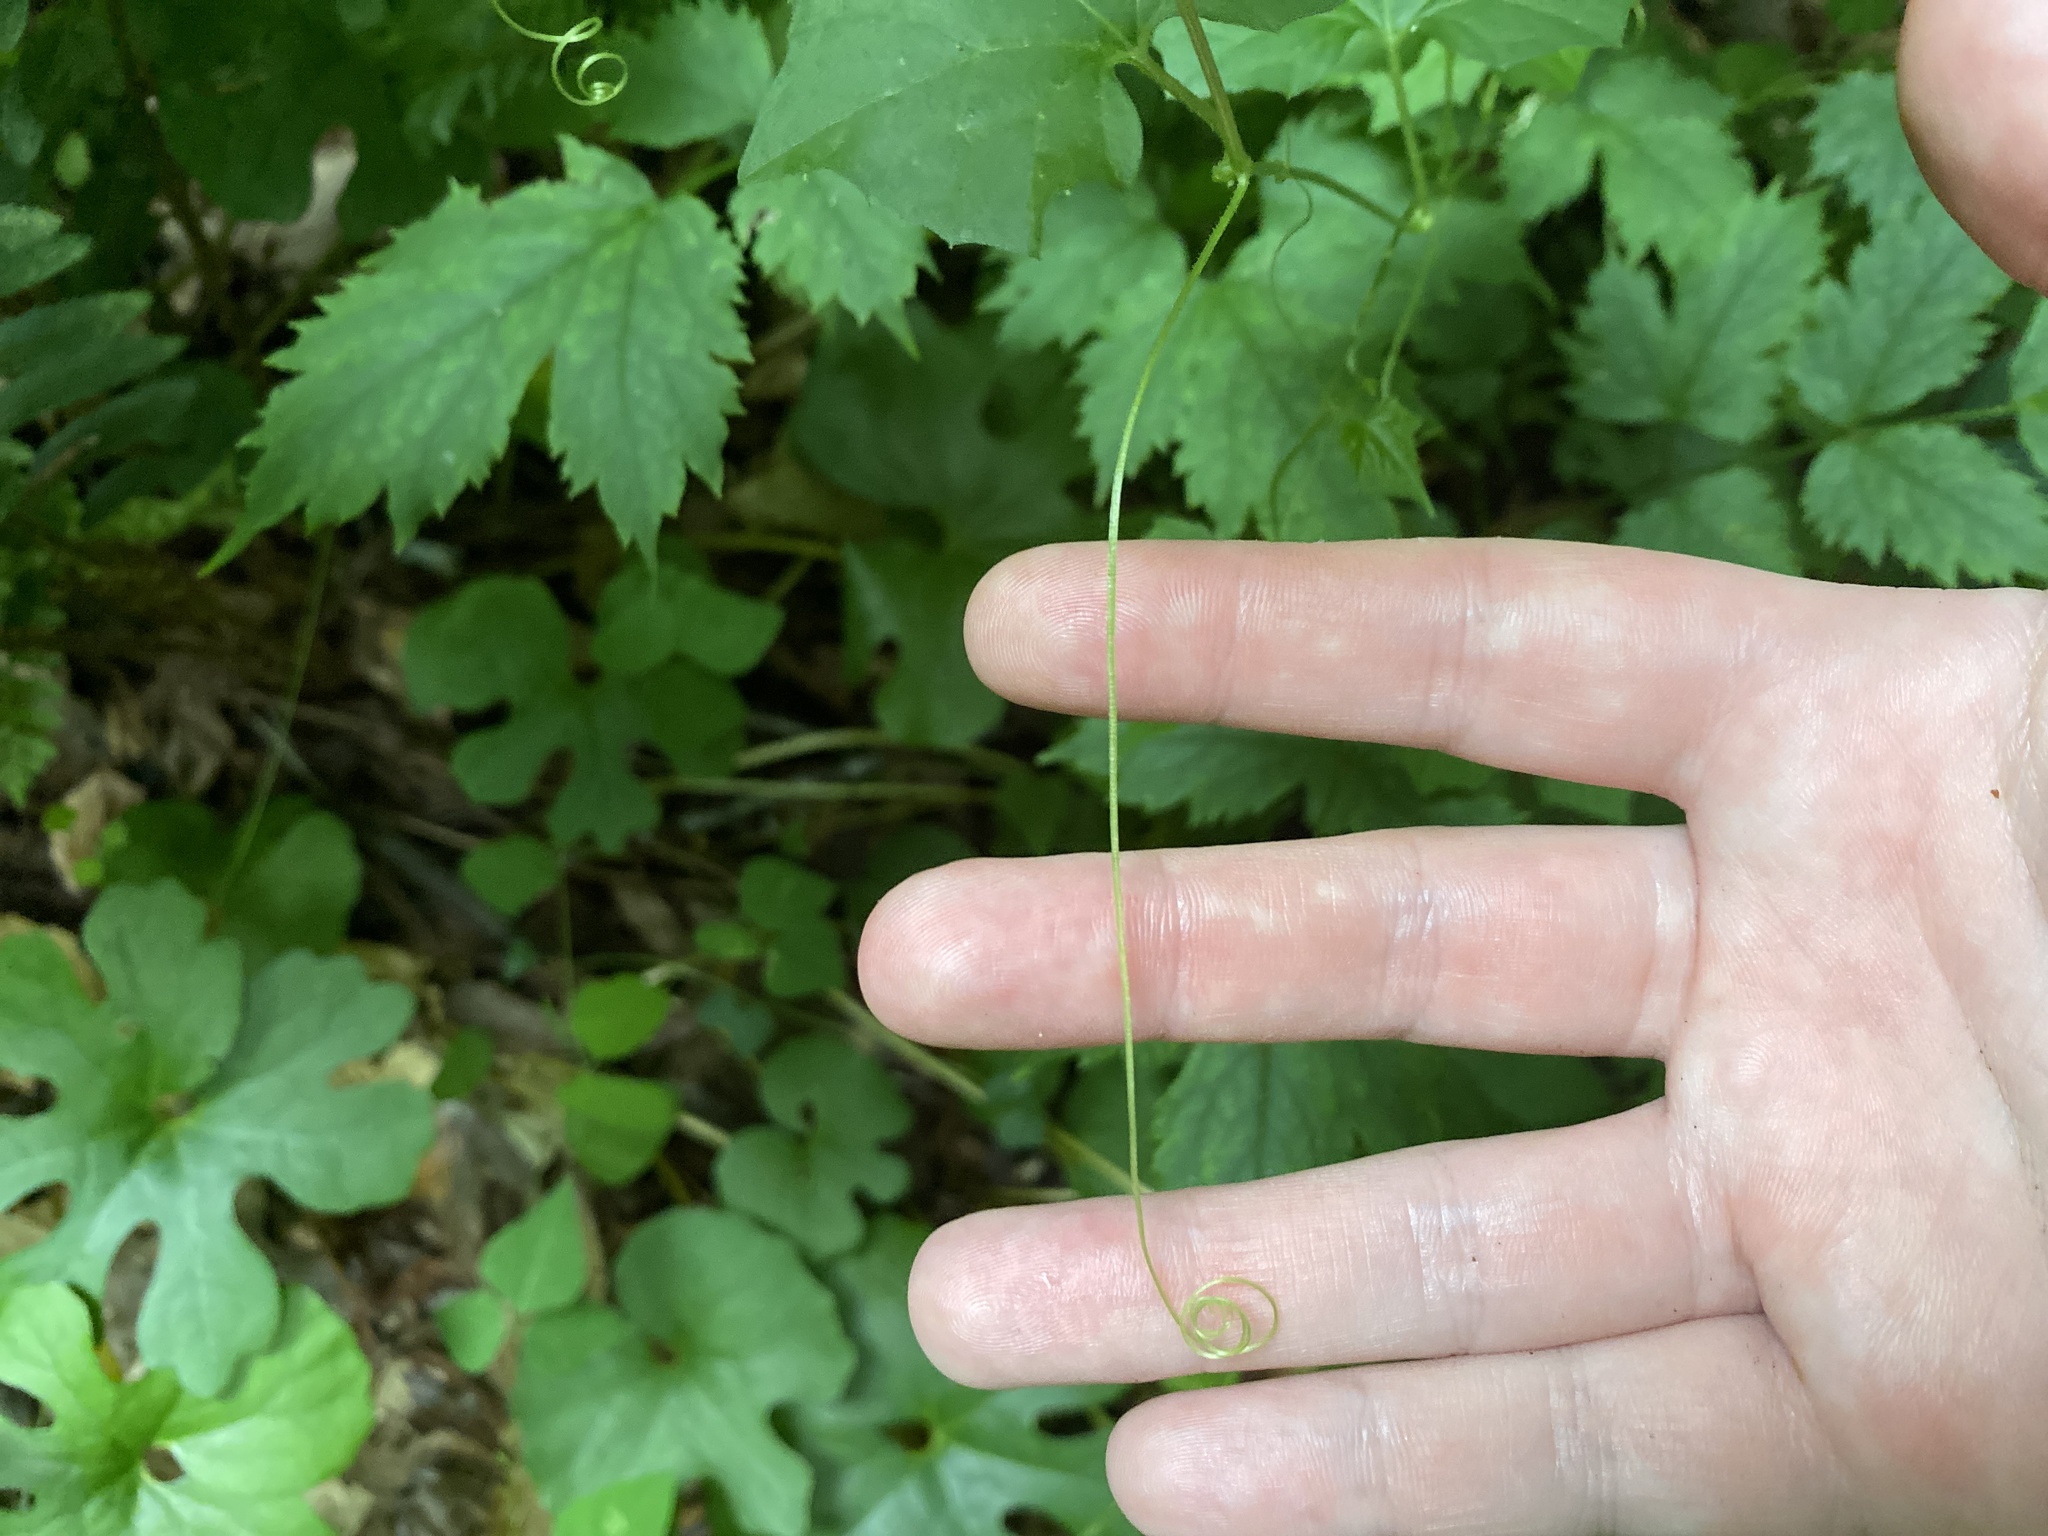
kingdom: Plantae
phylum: Tracheophyta
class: Magnoliopsida
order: Cucurbitales
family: Cucurbitaceae
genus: Melothria
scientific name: Melothria pendula
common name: Creeping-cucumber
